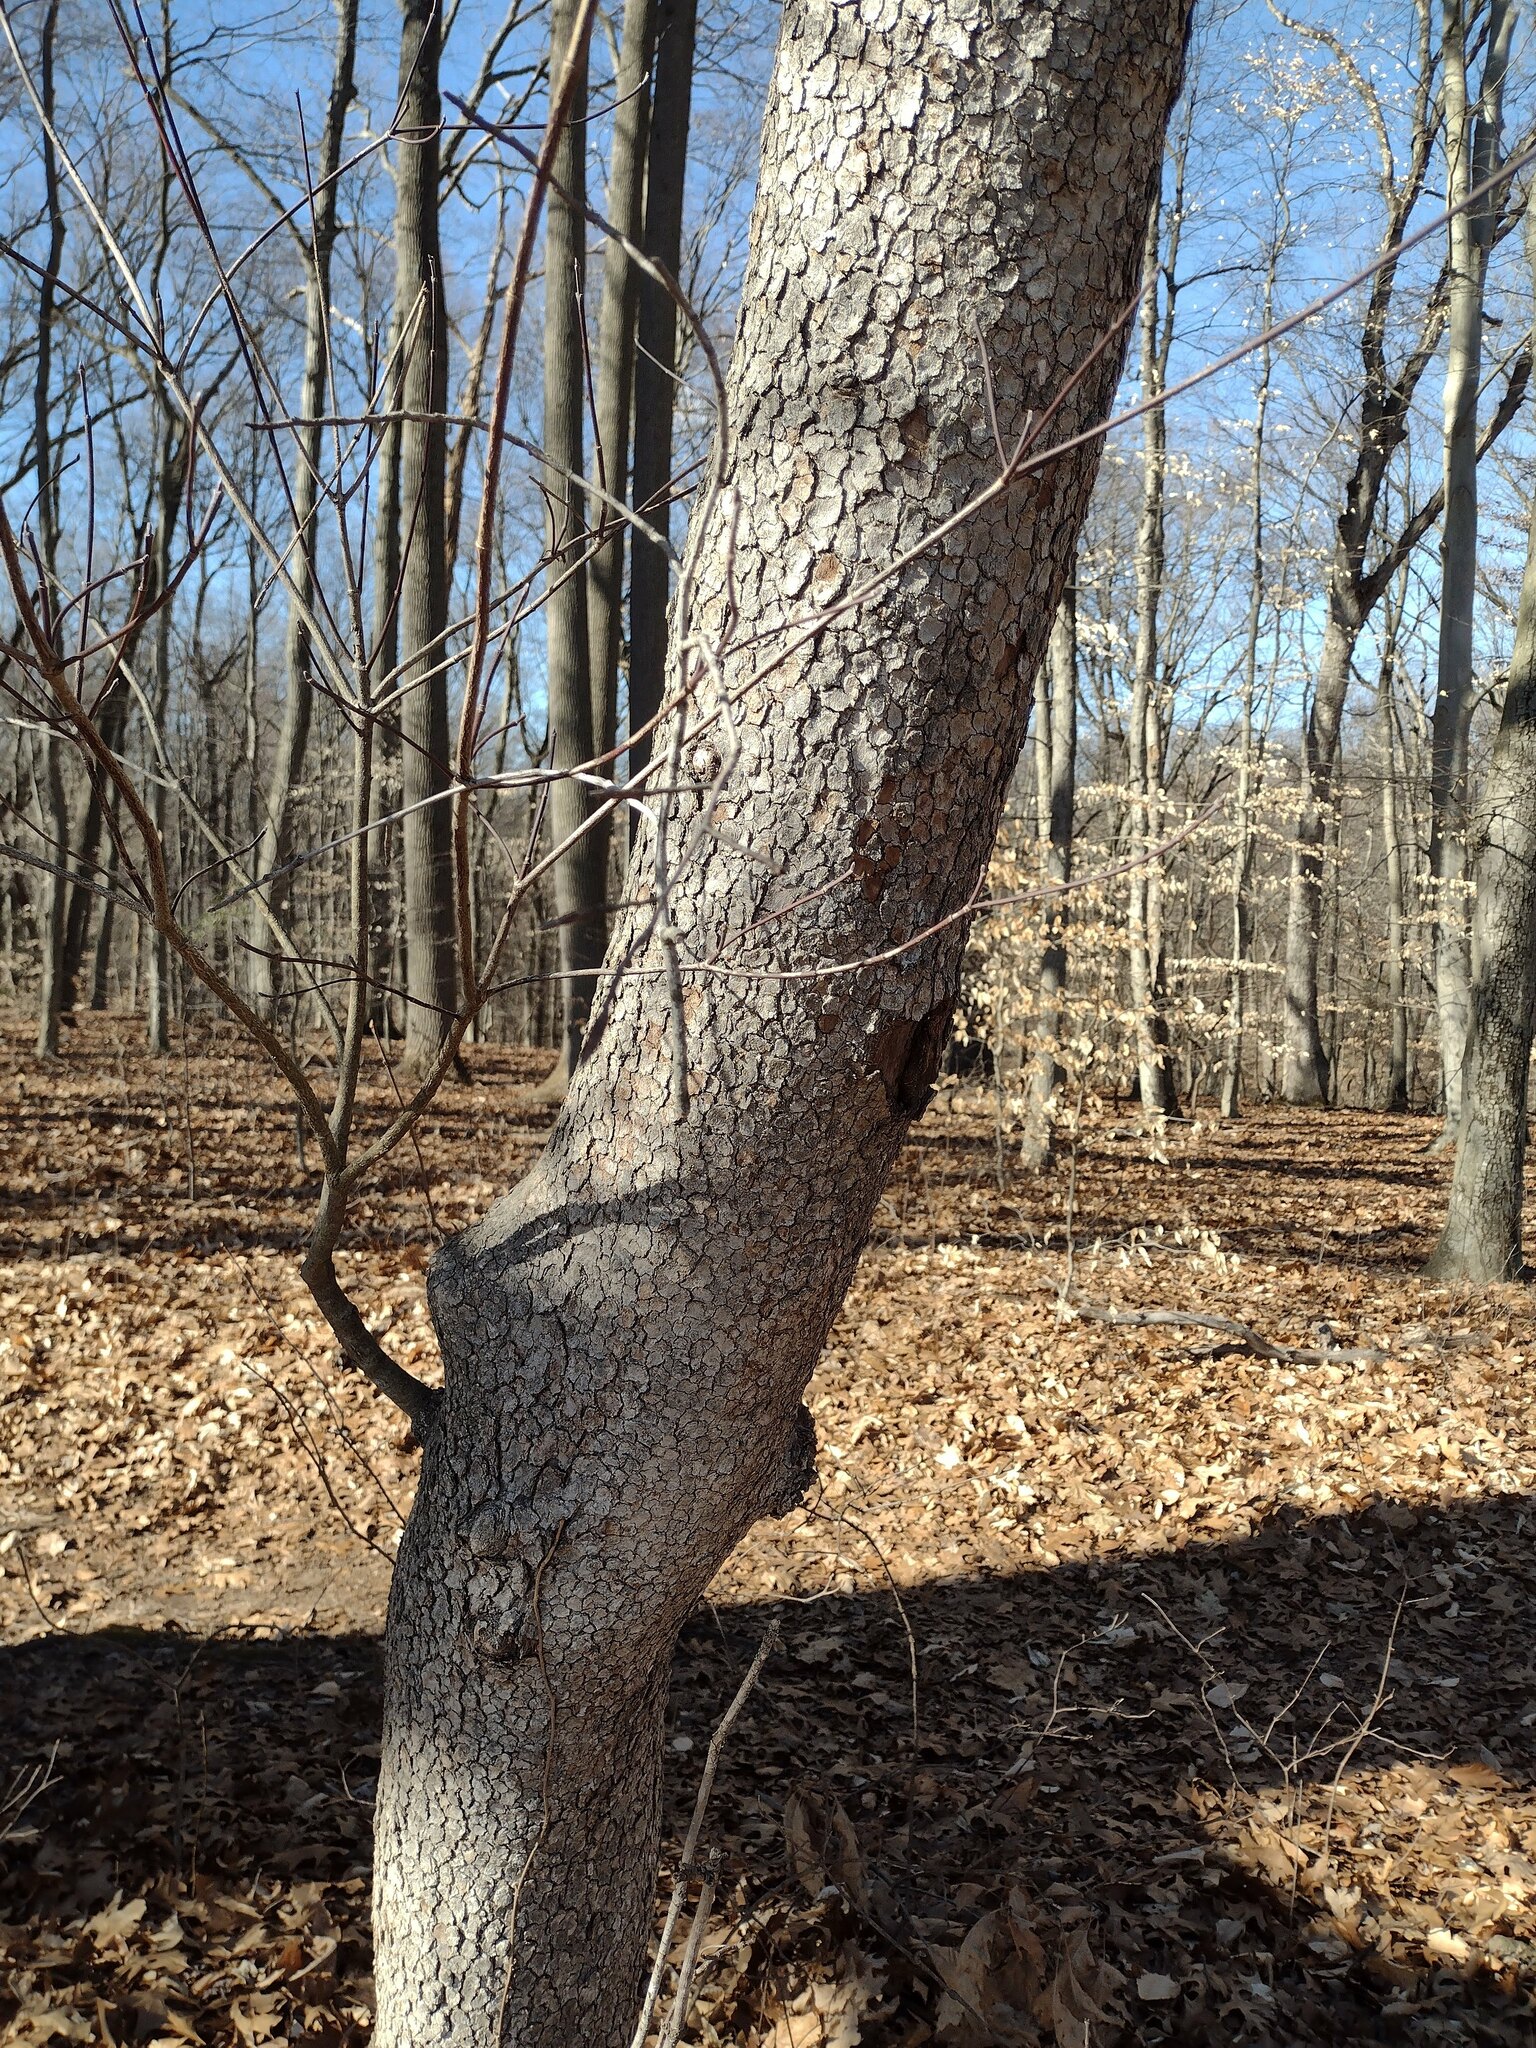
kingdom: Plantae
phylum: Tracheophyta
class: Magnoliopsida
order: Cornales
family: Cornaceae
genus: Cornus
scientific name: Cornus florida
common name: Flowering dogwood
